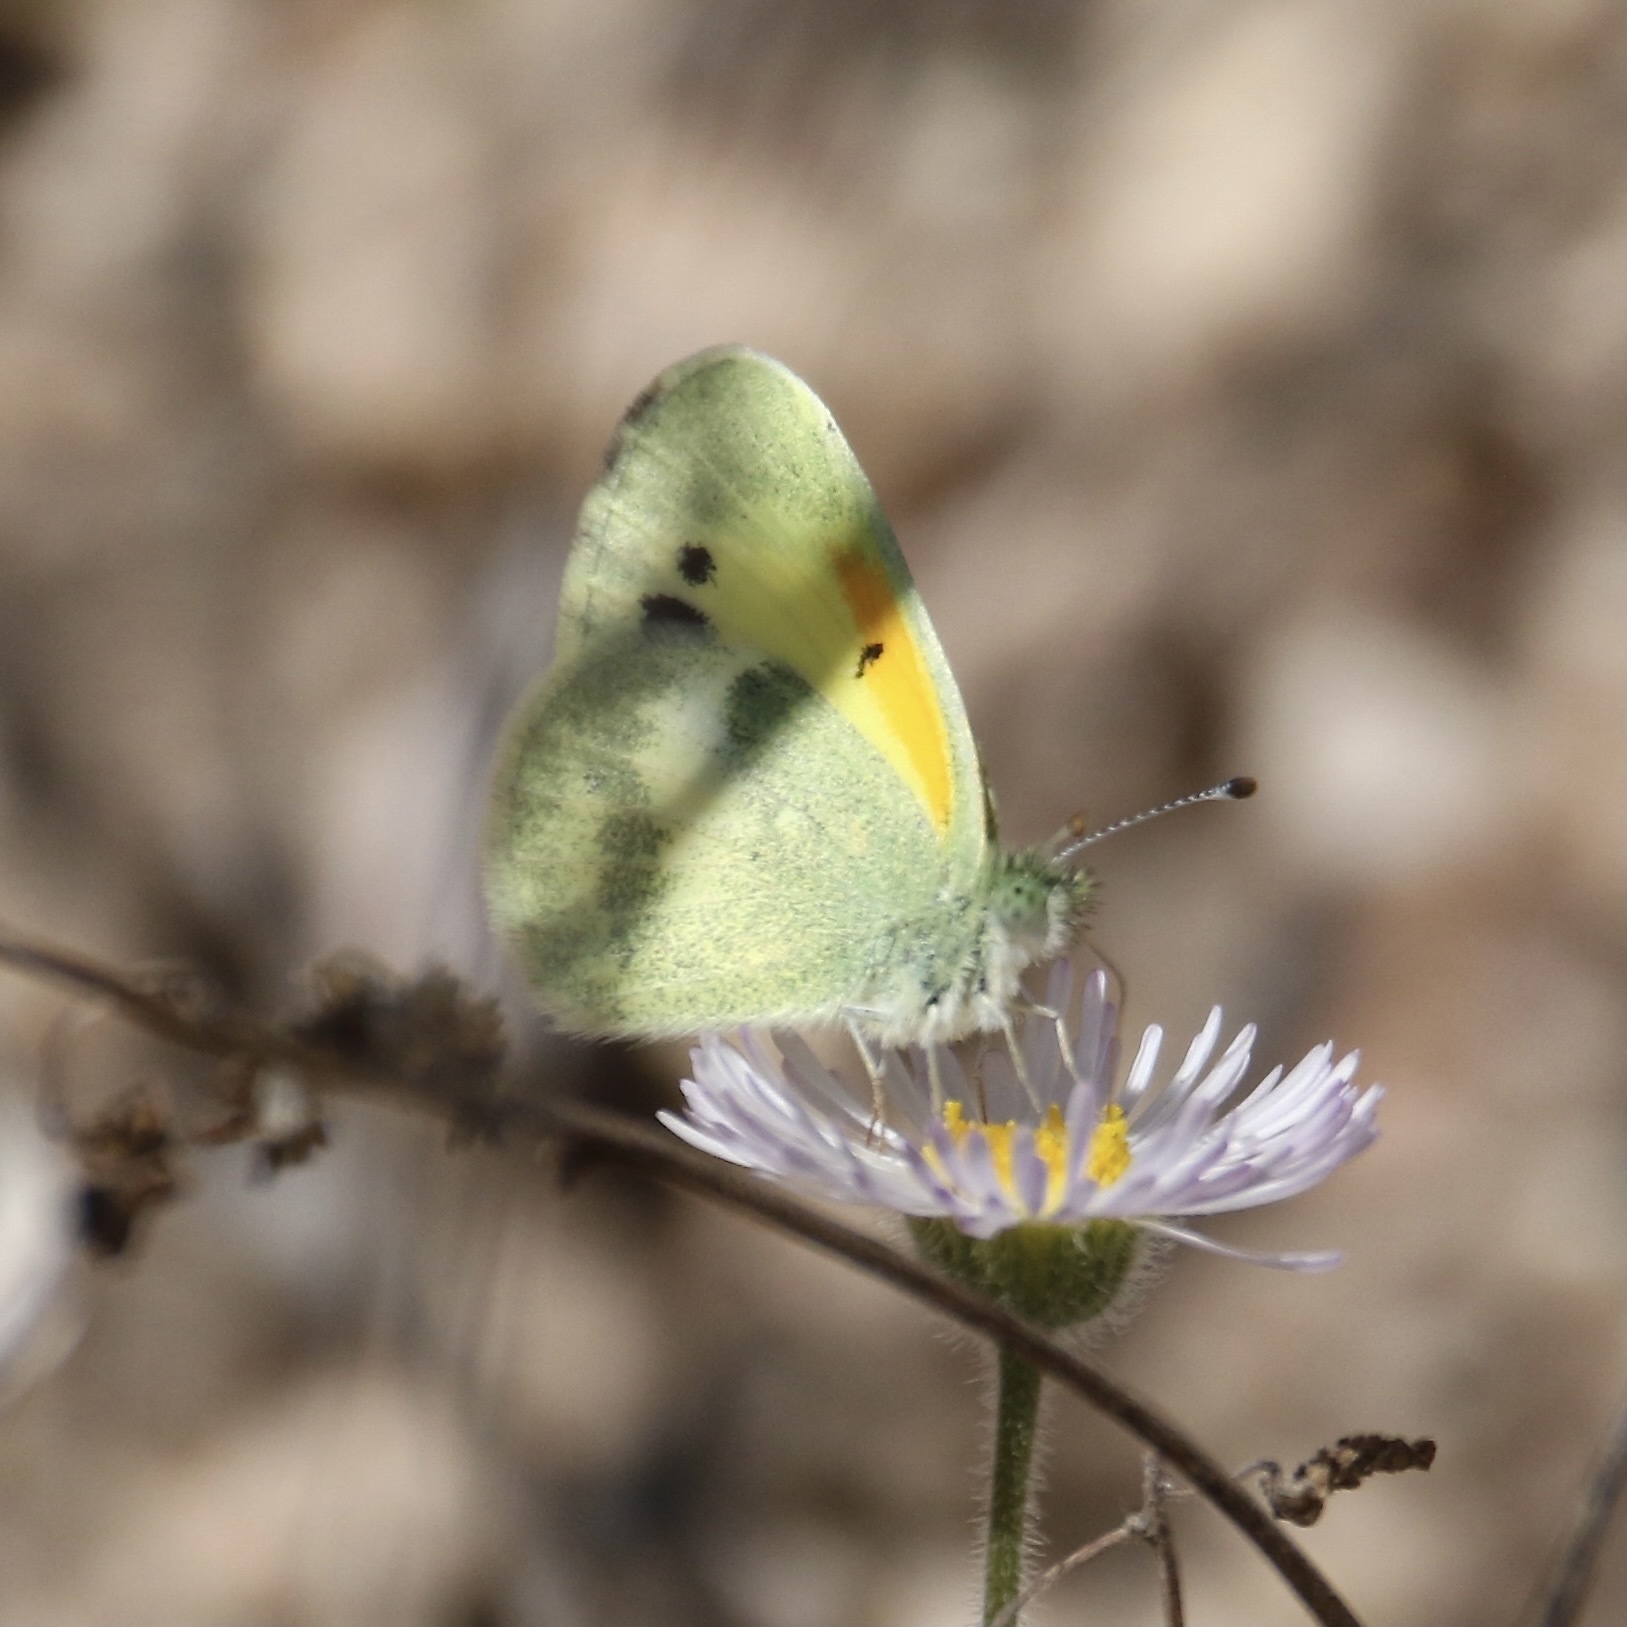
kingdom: Animalia
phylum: Arthropoda
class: Insecta
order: Lepidoptera
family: Pieridae
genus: Nathalis
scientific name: Nathalis iole
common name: Dainty sulphur
